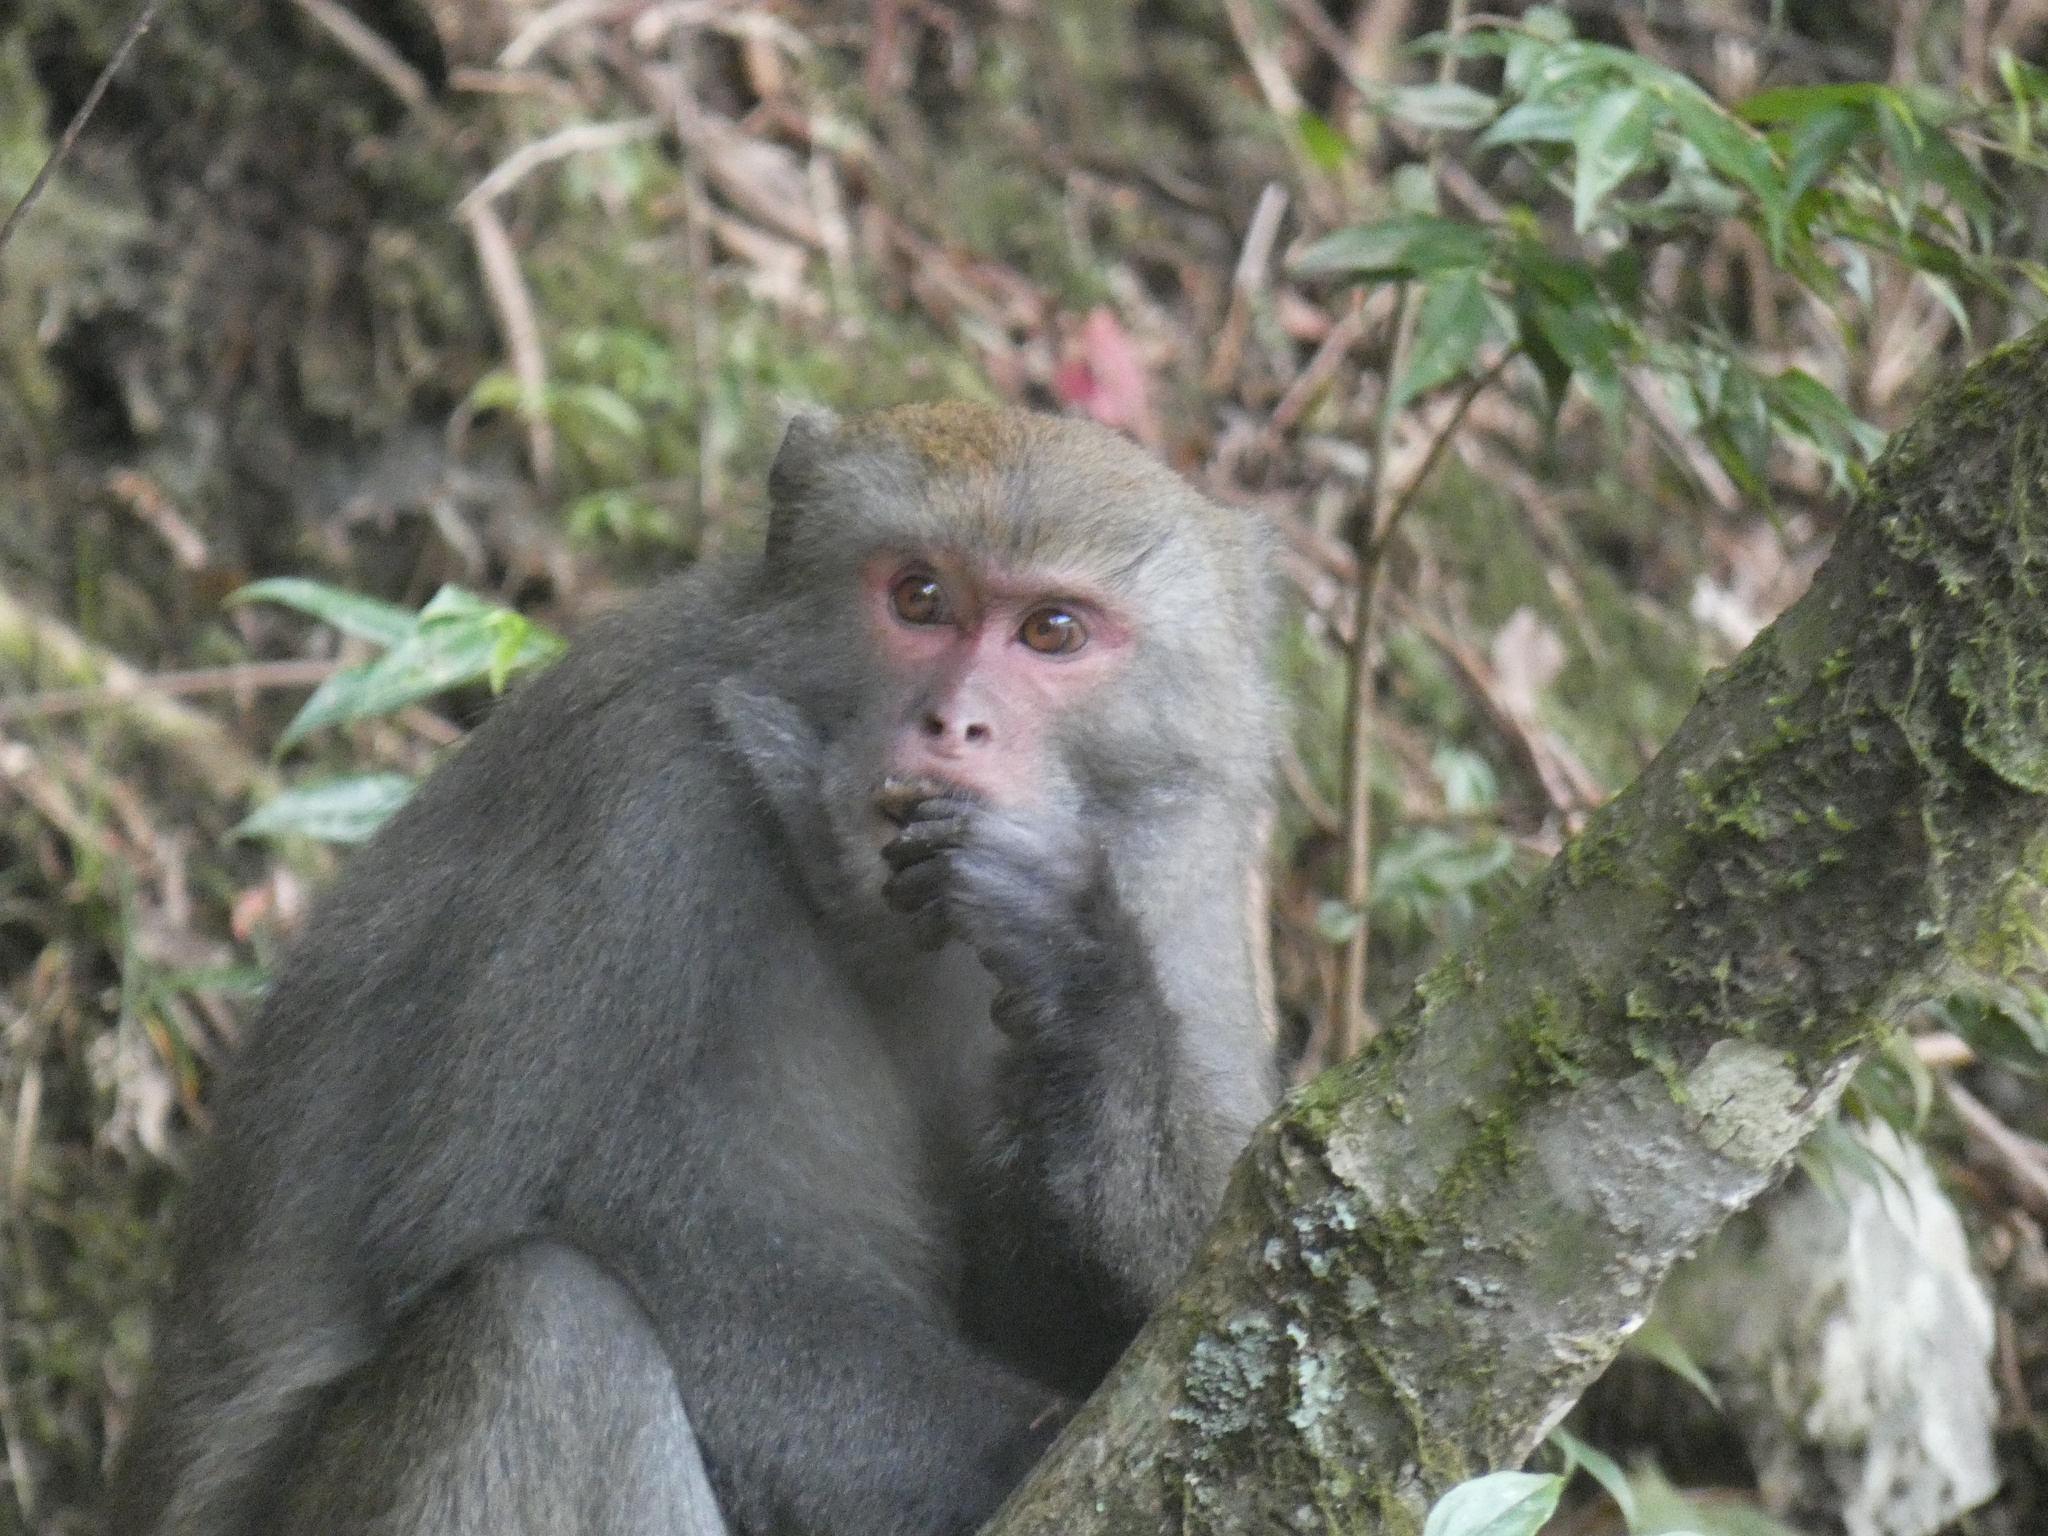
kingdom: Animalia
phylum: Chordata
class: Mammalia
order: Primates
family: Cercopithecidae
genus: Macaca
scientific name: Macaca cyclopis
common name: Formosan rock macaque
